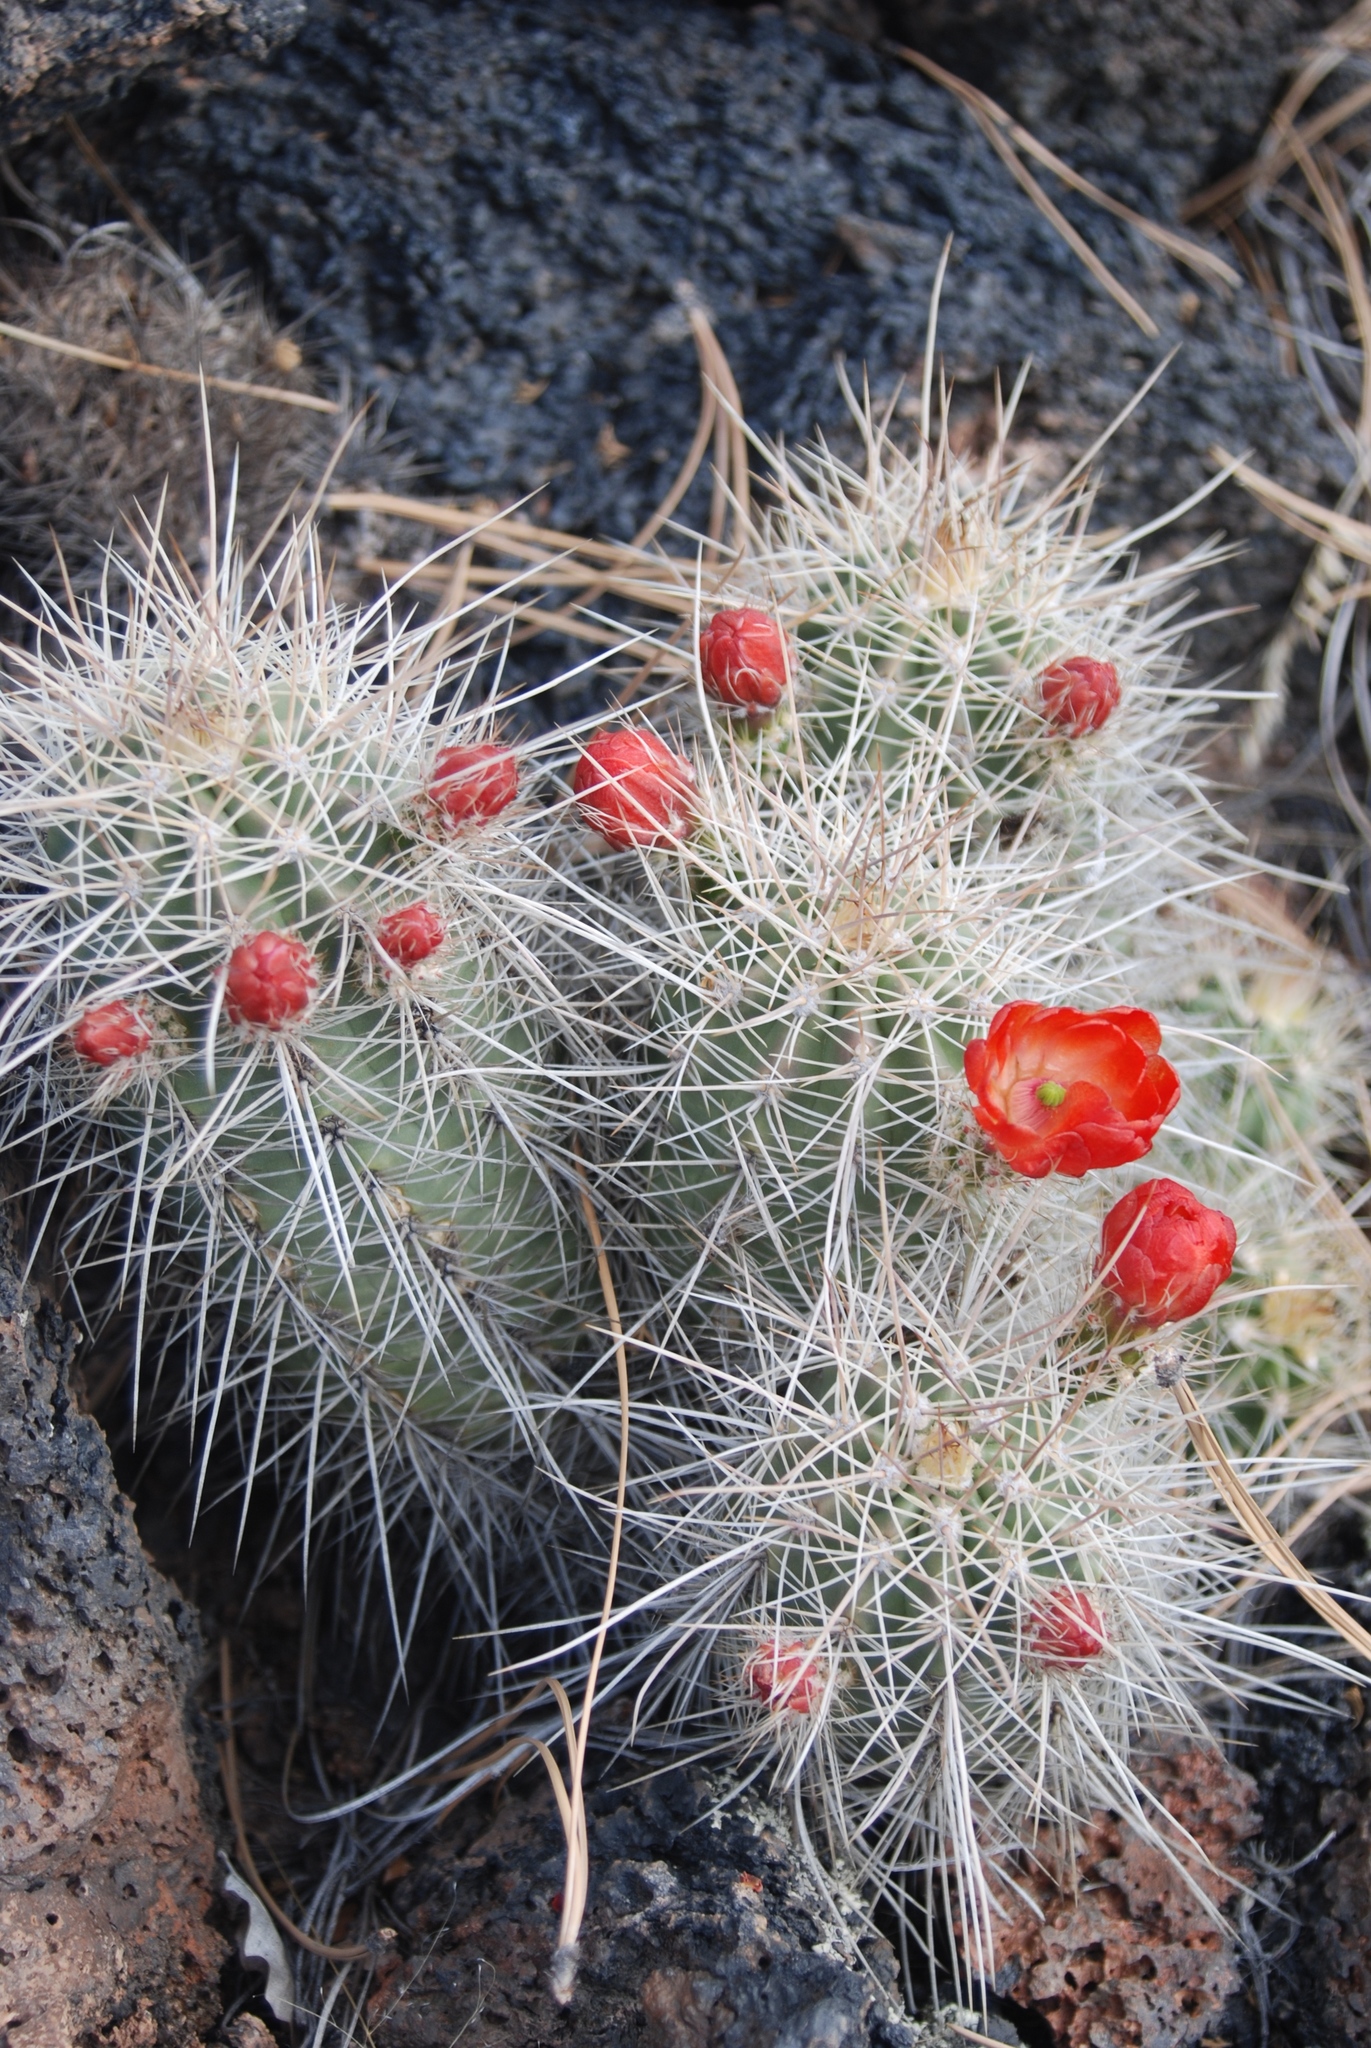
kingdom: Plantae
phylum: Tracheophyta
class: Magnoliopsida
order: Caryophyllales
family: Cactaceae
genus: Echinocereus
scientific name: Echinocereus coccineus
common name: Scarlet hedgehog cactus
